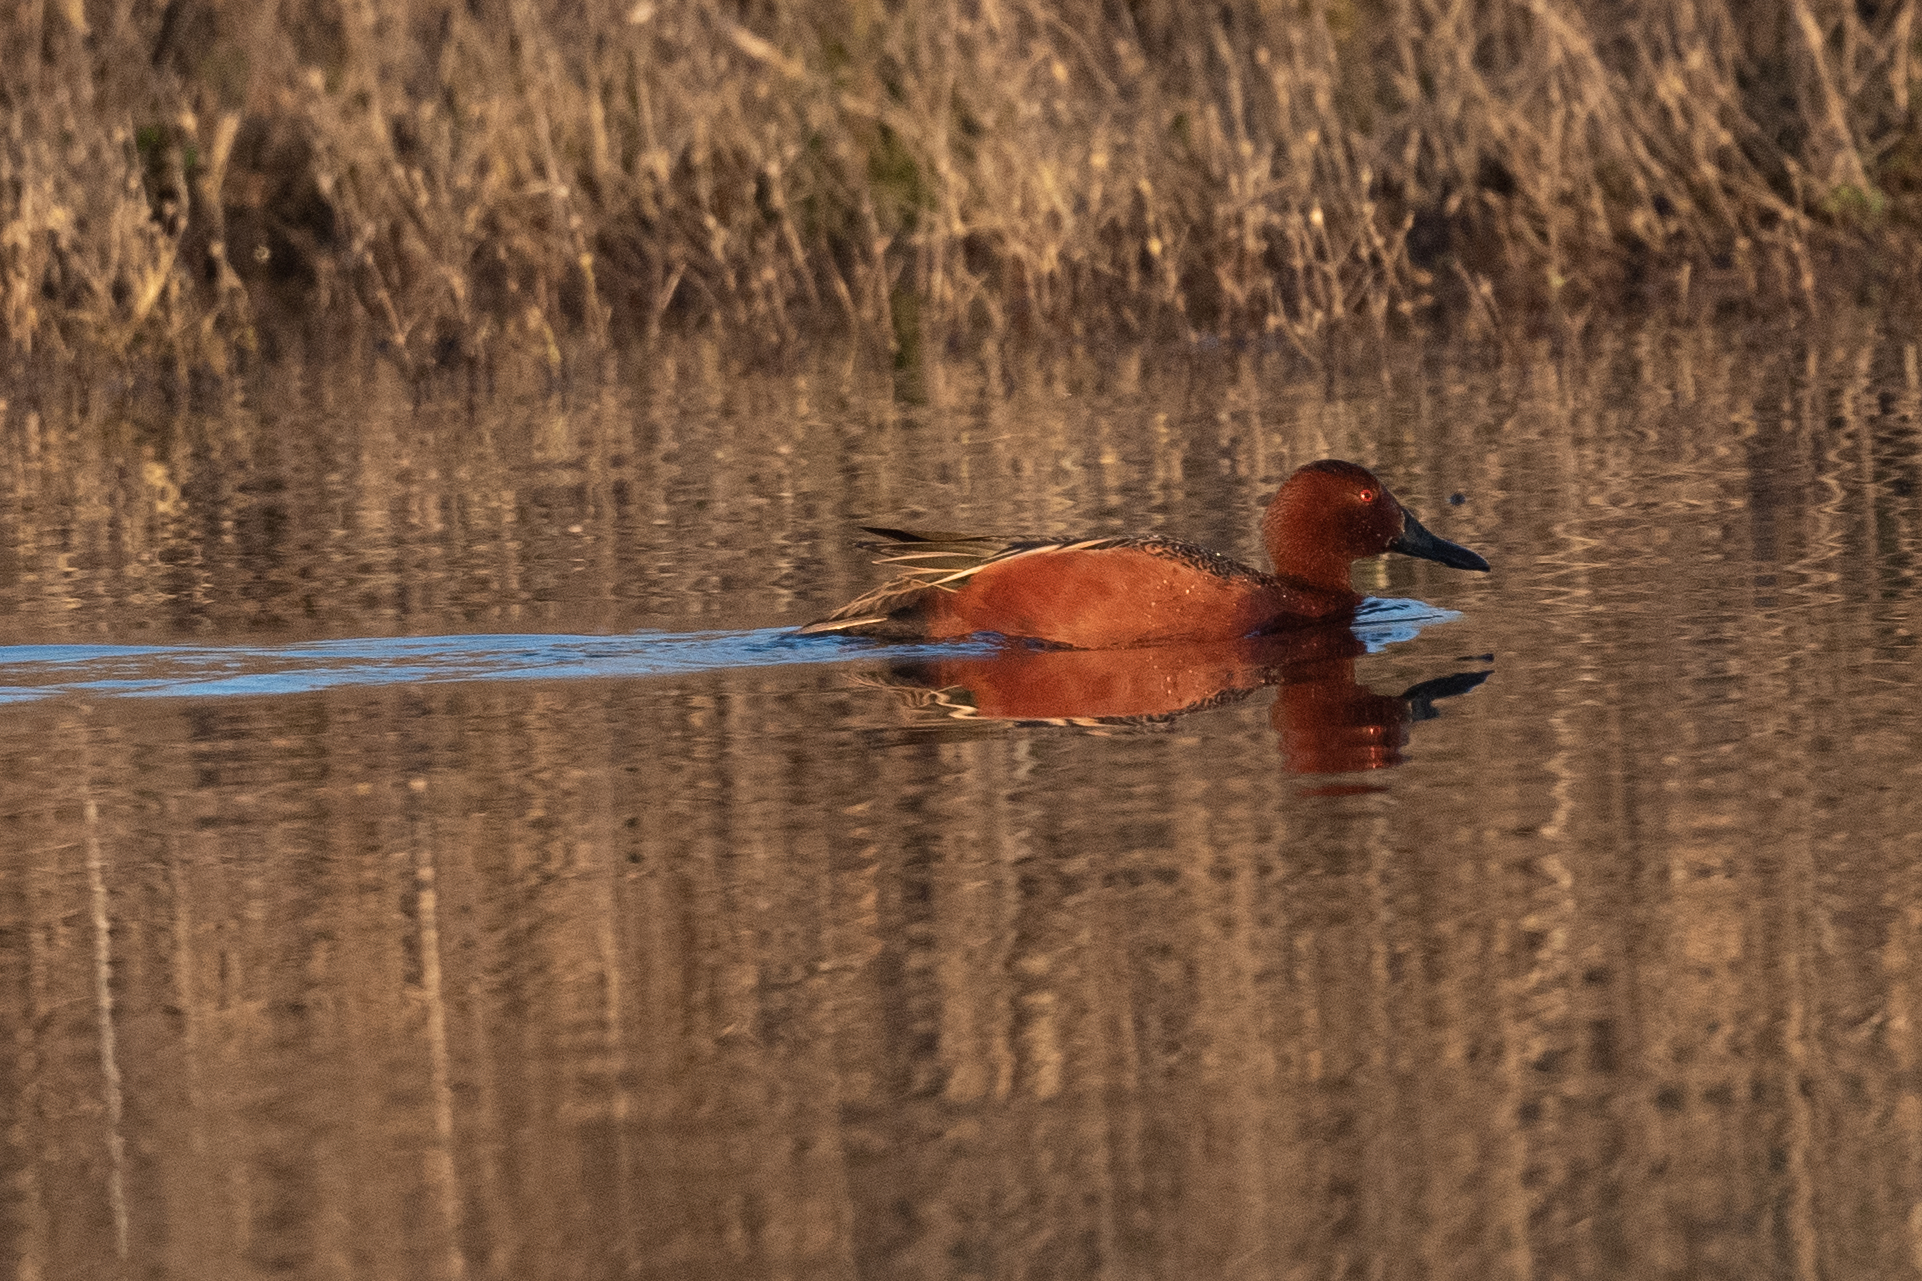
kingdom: Animalia
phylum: Chordata
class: Aves
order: Anseriformes
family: Anatidae
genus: Spatula
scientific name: Spatula cyanoptera
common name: Cinnamon teal
